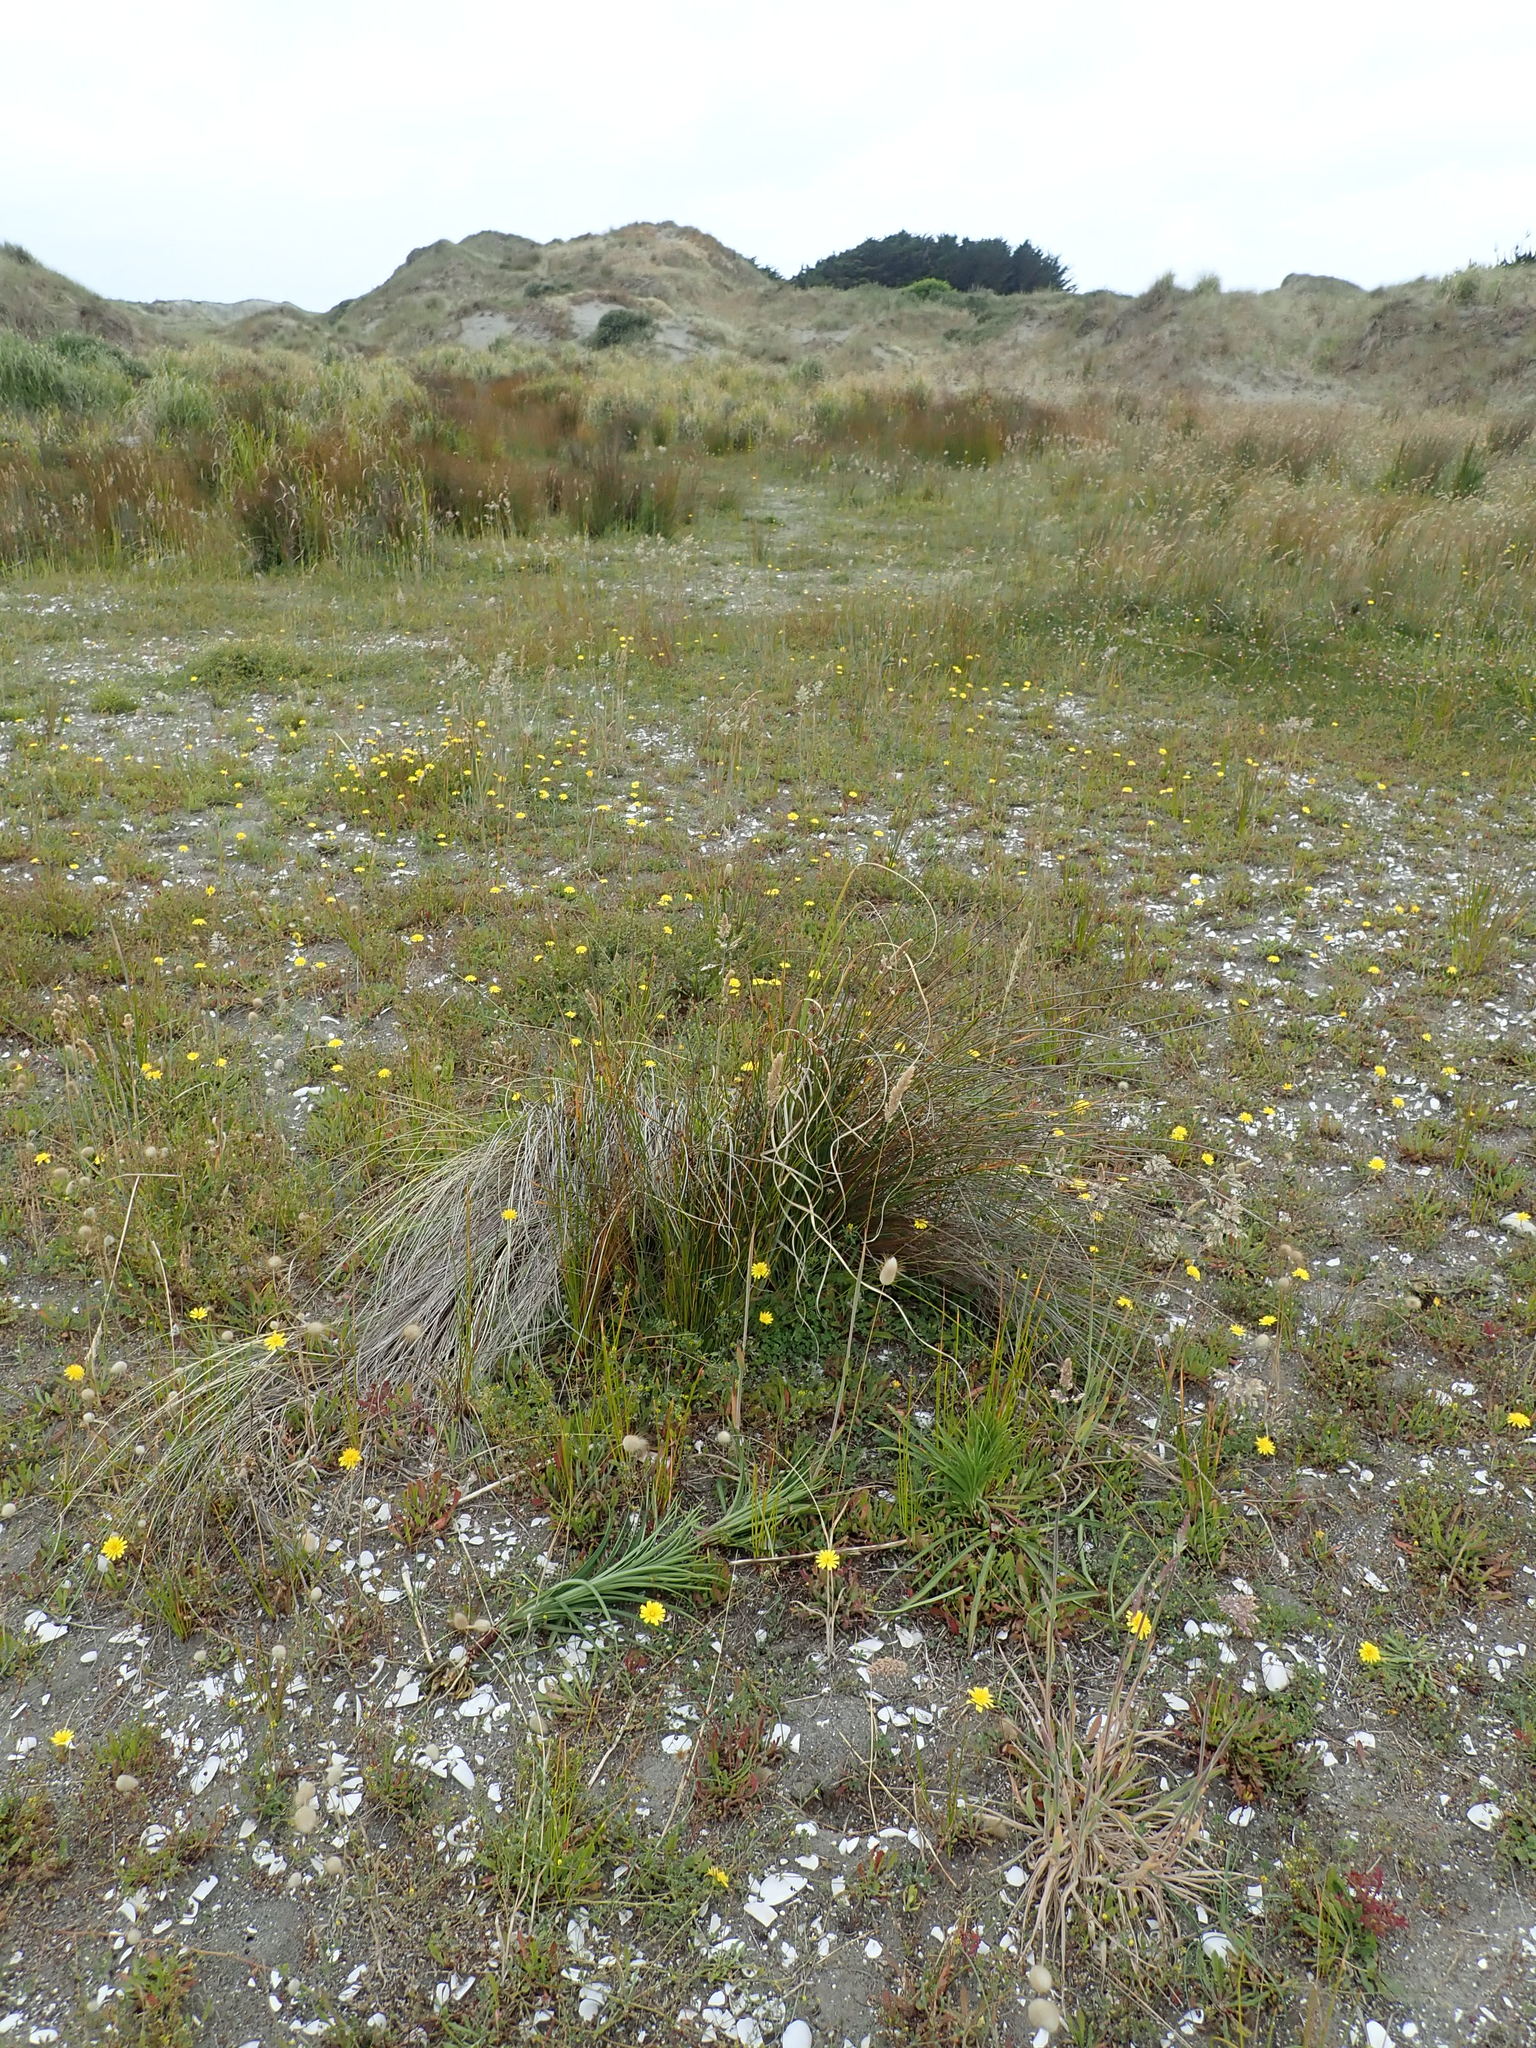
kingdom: Plantae
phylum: Tracheophyta
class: Liliopsida
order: Liliales
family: Liliaceae
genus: Lilium
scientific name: Lilium formosanum
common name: Formosa lily
